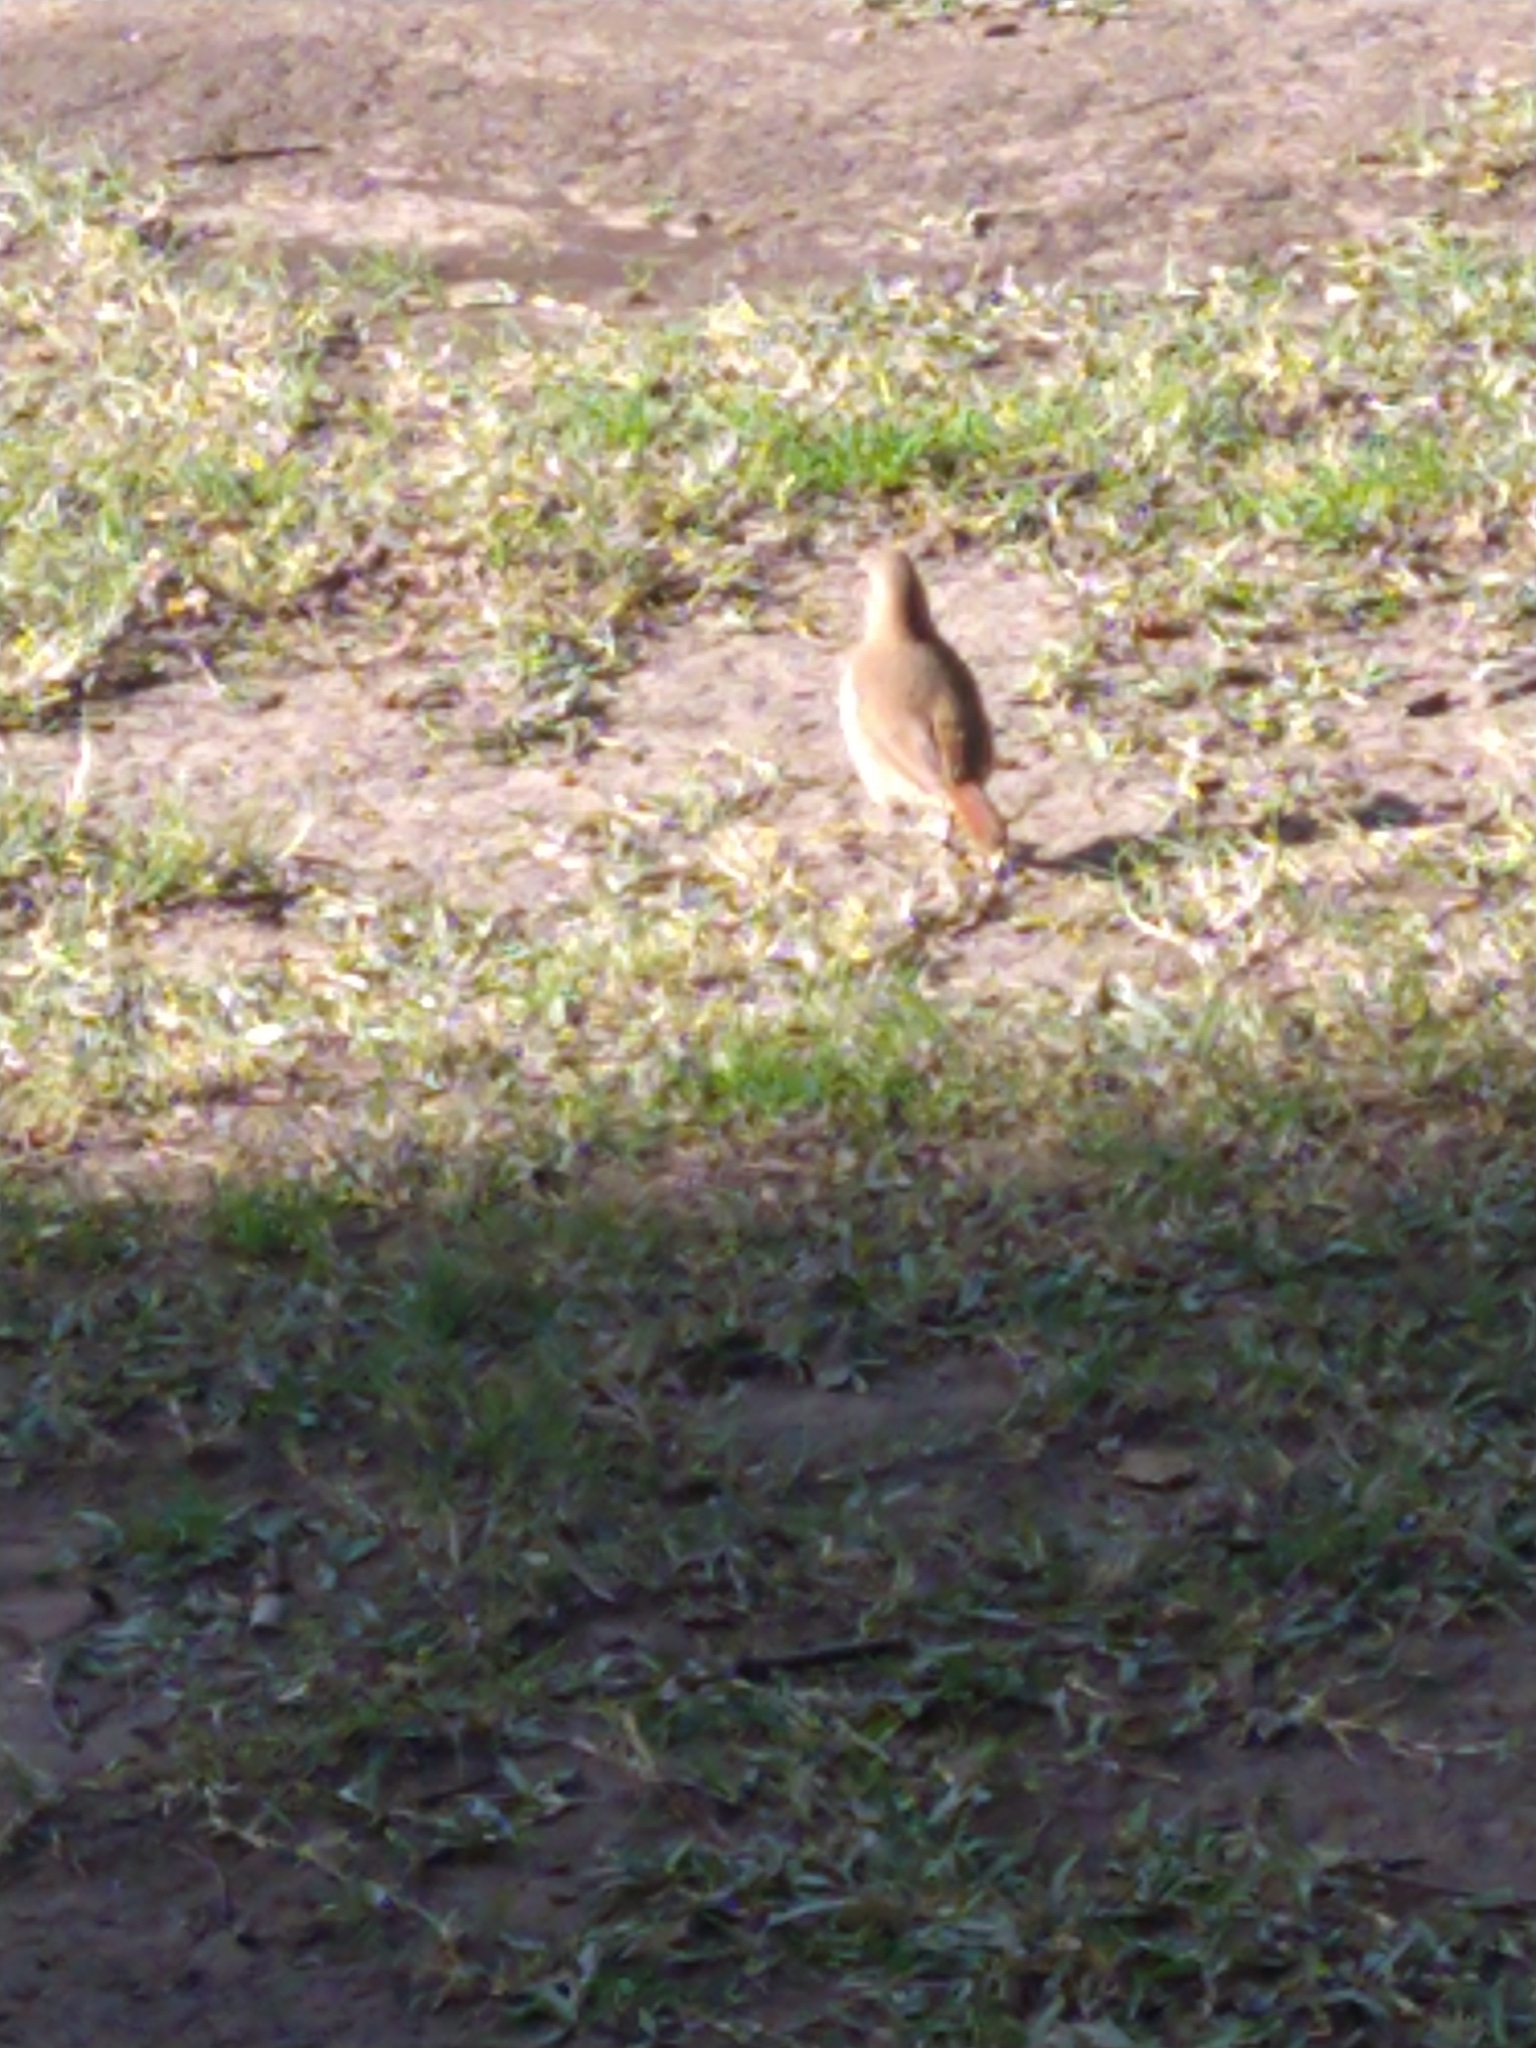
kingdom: Animalia
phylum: Chordata
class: Aves
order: Passeriformes
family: Furnariidae
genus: Furnarius
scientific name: Furnarius rufus
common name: Rufous hornero
